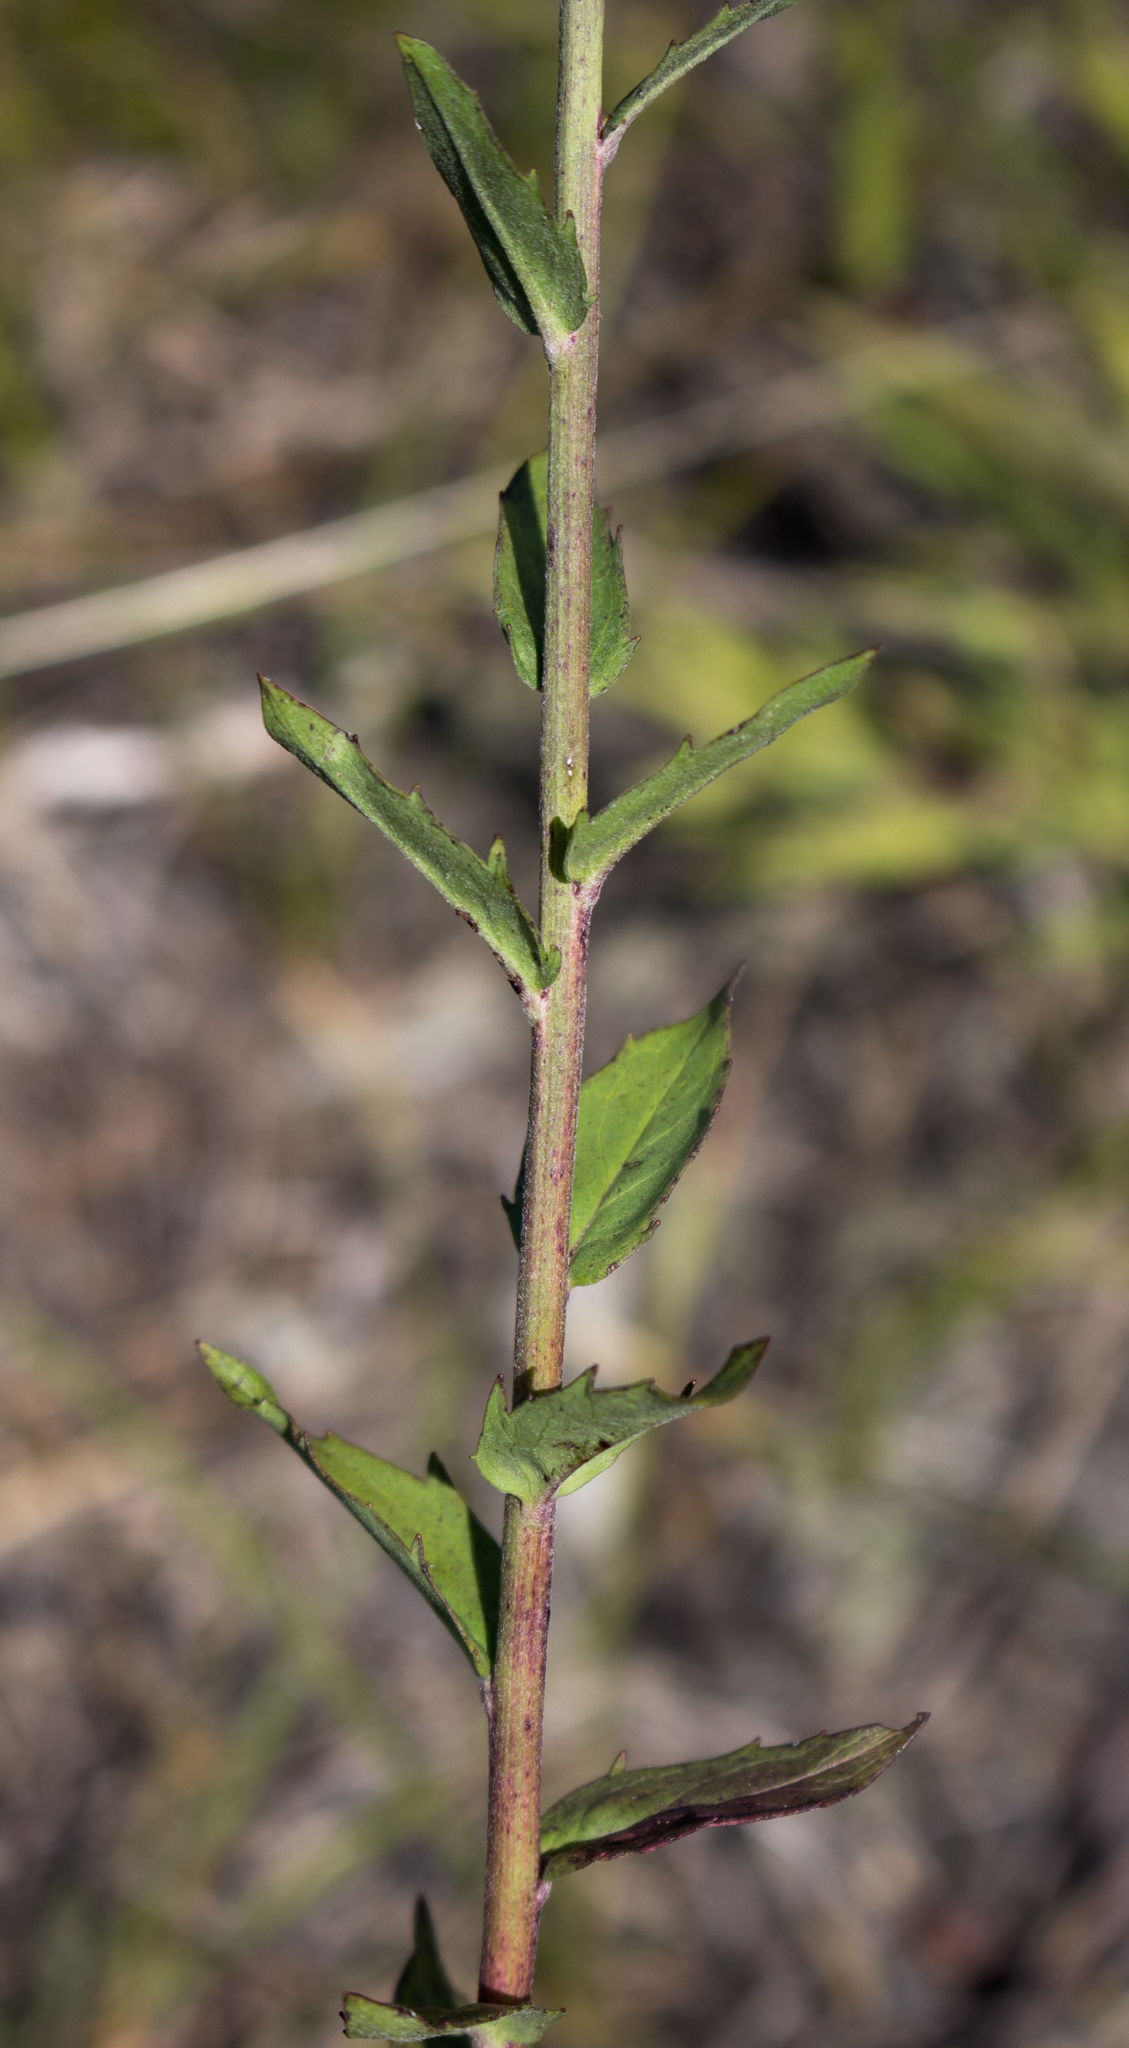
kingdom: Plantae
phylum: Tracheophyta
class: Magnoliopsida
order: Asterales
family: Asteraceae
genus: Hieracium
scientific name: Hieracium umbellatum
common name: Northern hawkweed
